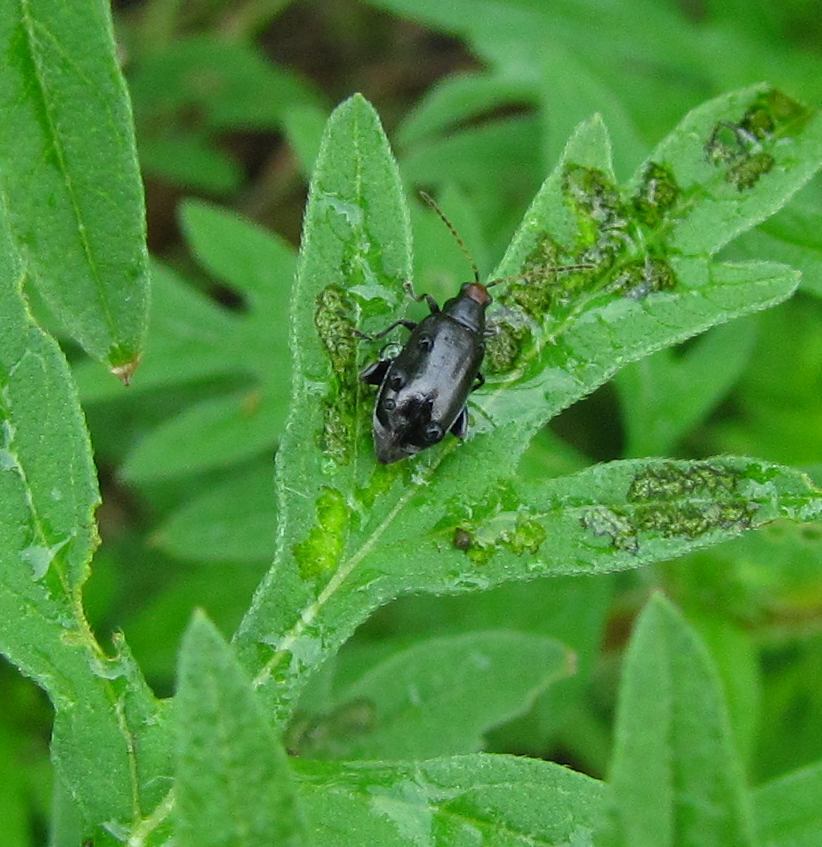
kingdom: Animalia
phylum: Arthropoda
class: Insecta
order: Coleoptera
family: Chrysomelidae
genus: Systena
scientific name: Systena frontalis
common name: Red-headed flea beetle
